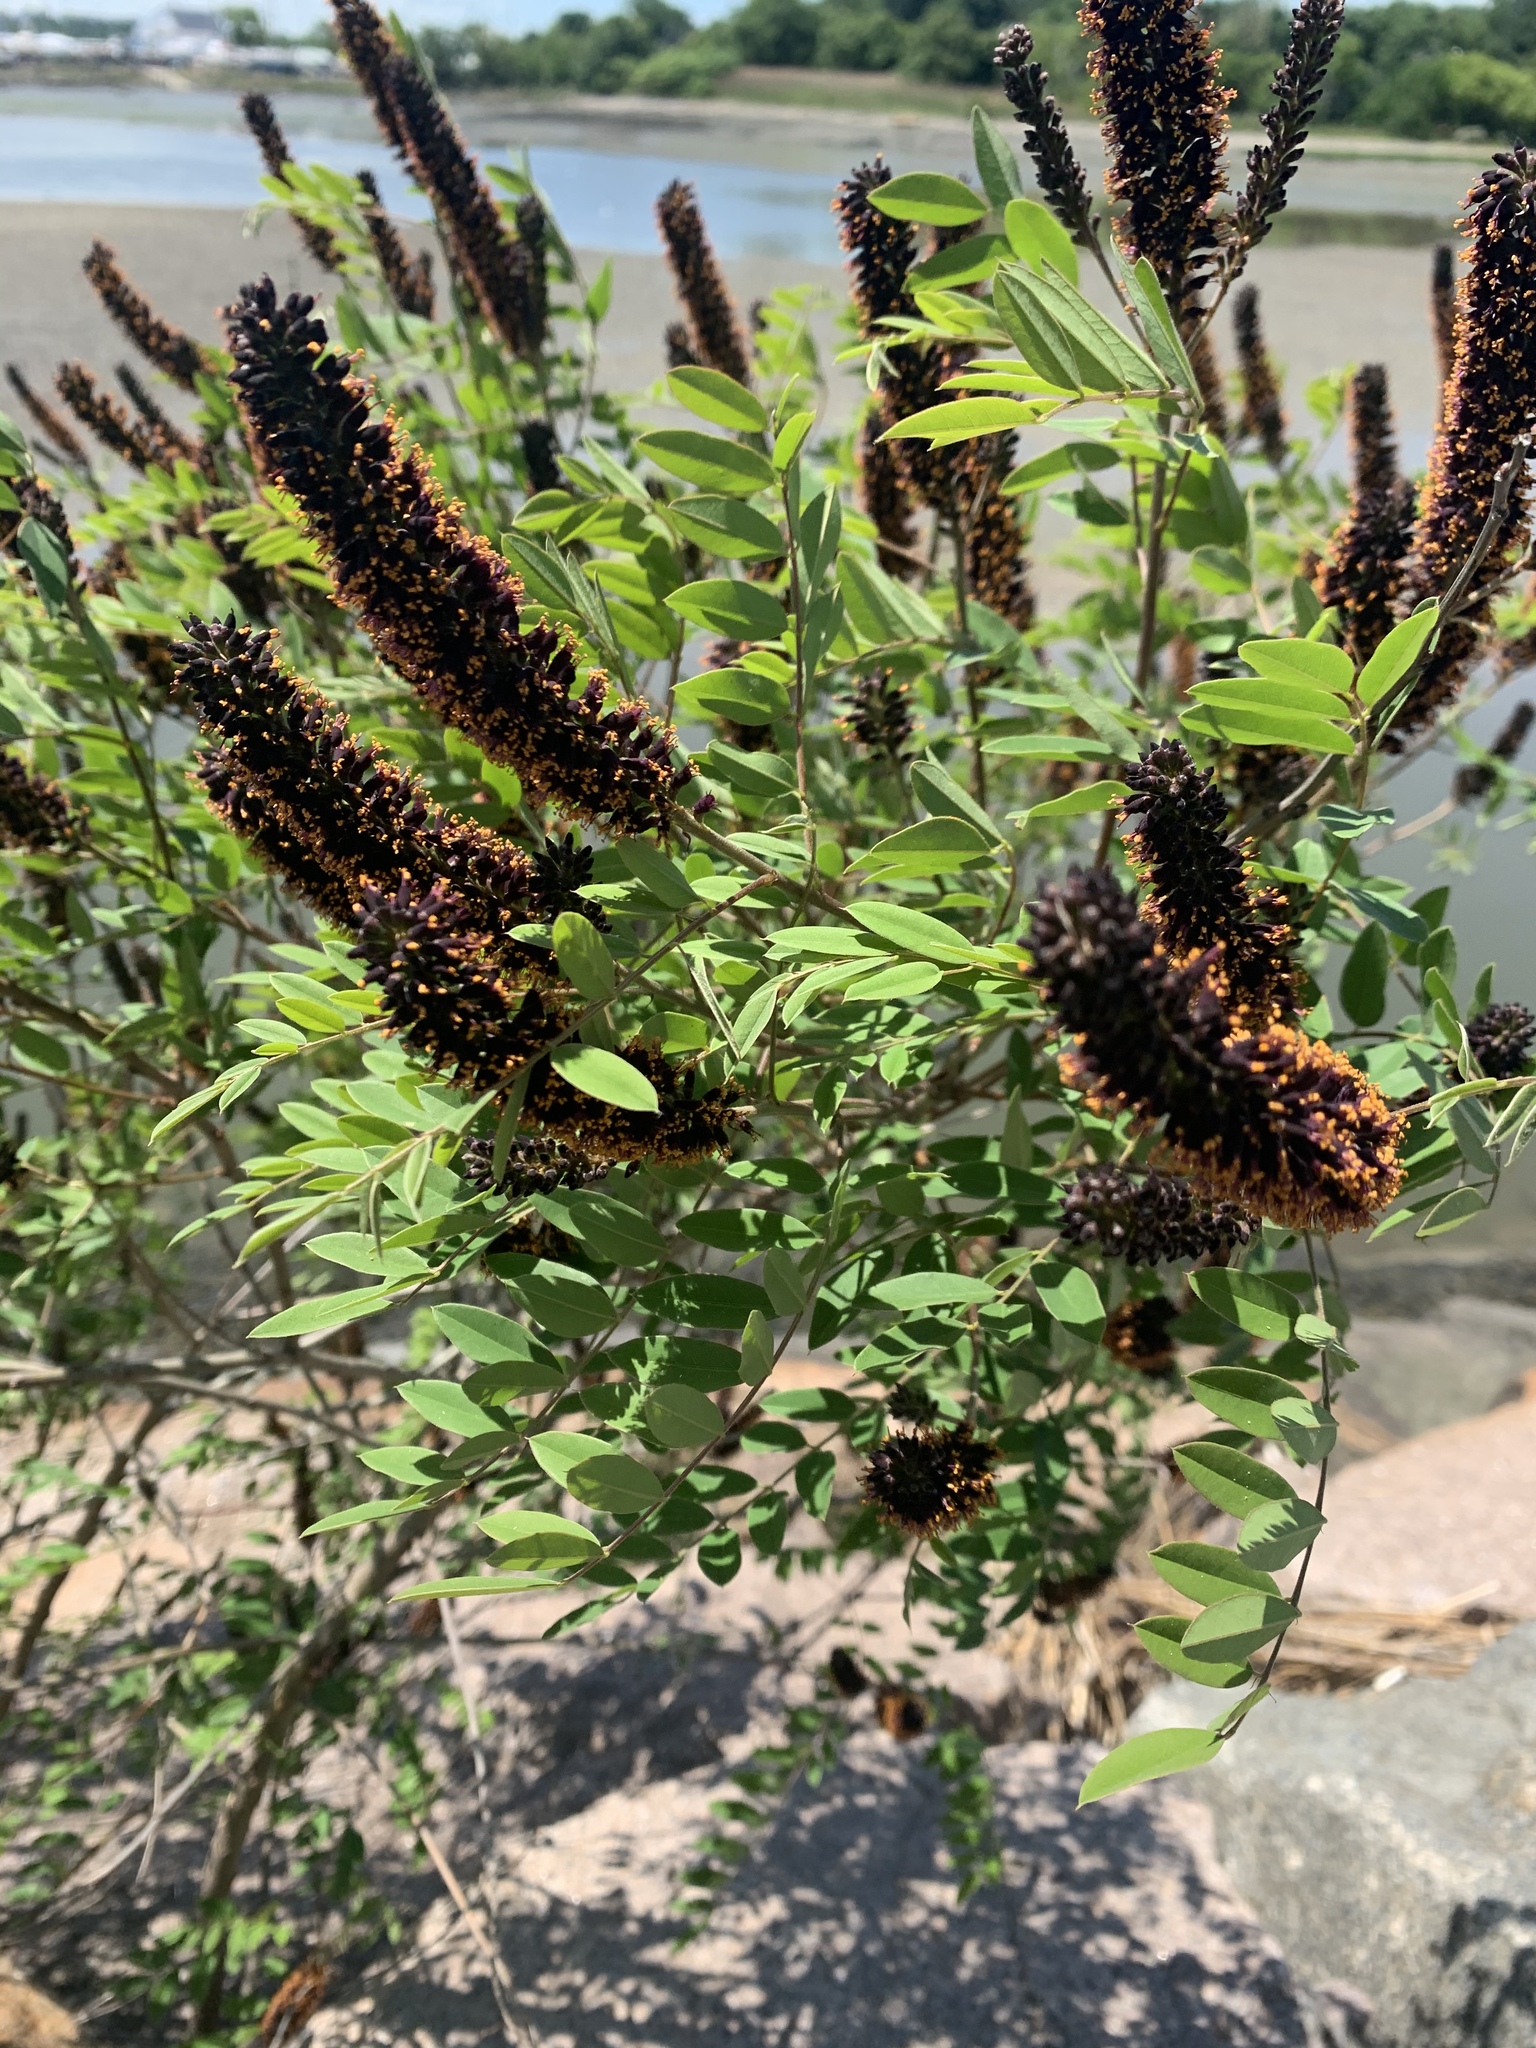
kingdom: Plantae
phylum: Tracheophyta
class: Magnoliopsida
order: Fabales
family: Fabaceae
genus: Amorpha
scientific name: Amorpha fruticosa
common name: False indigo
